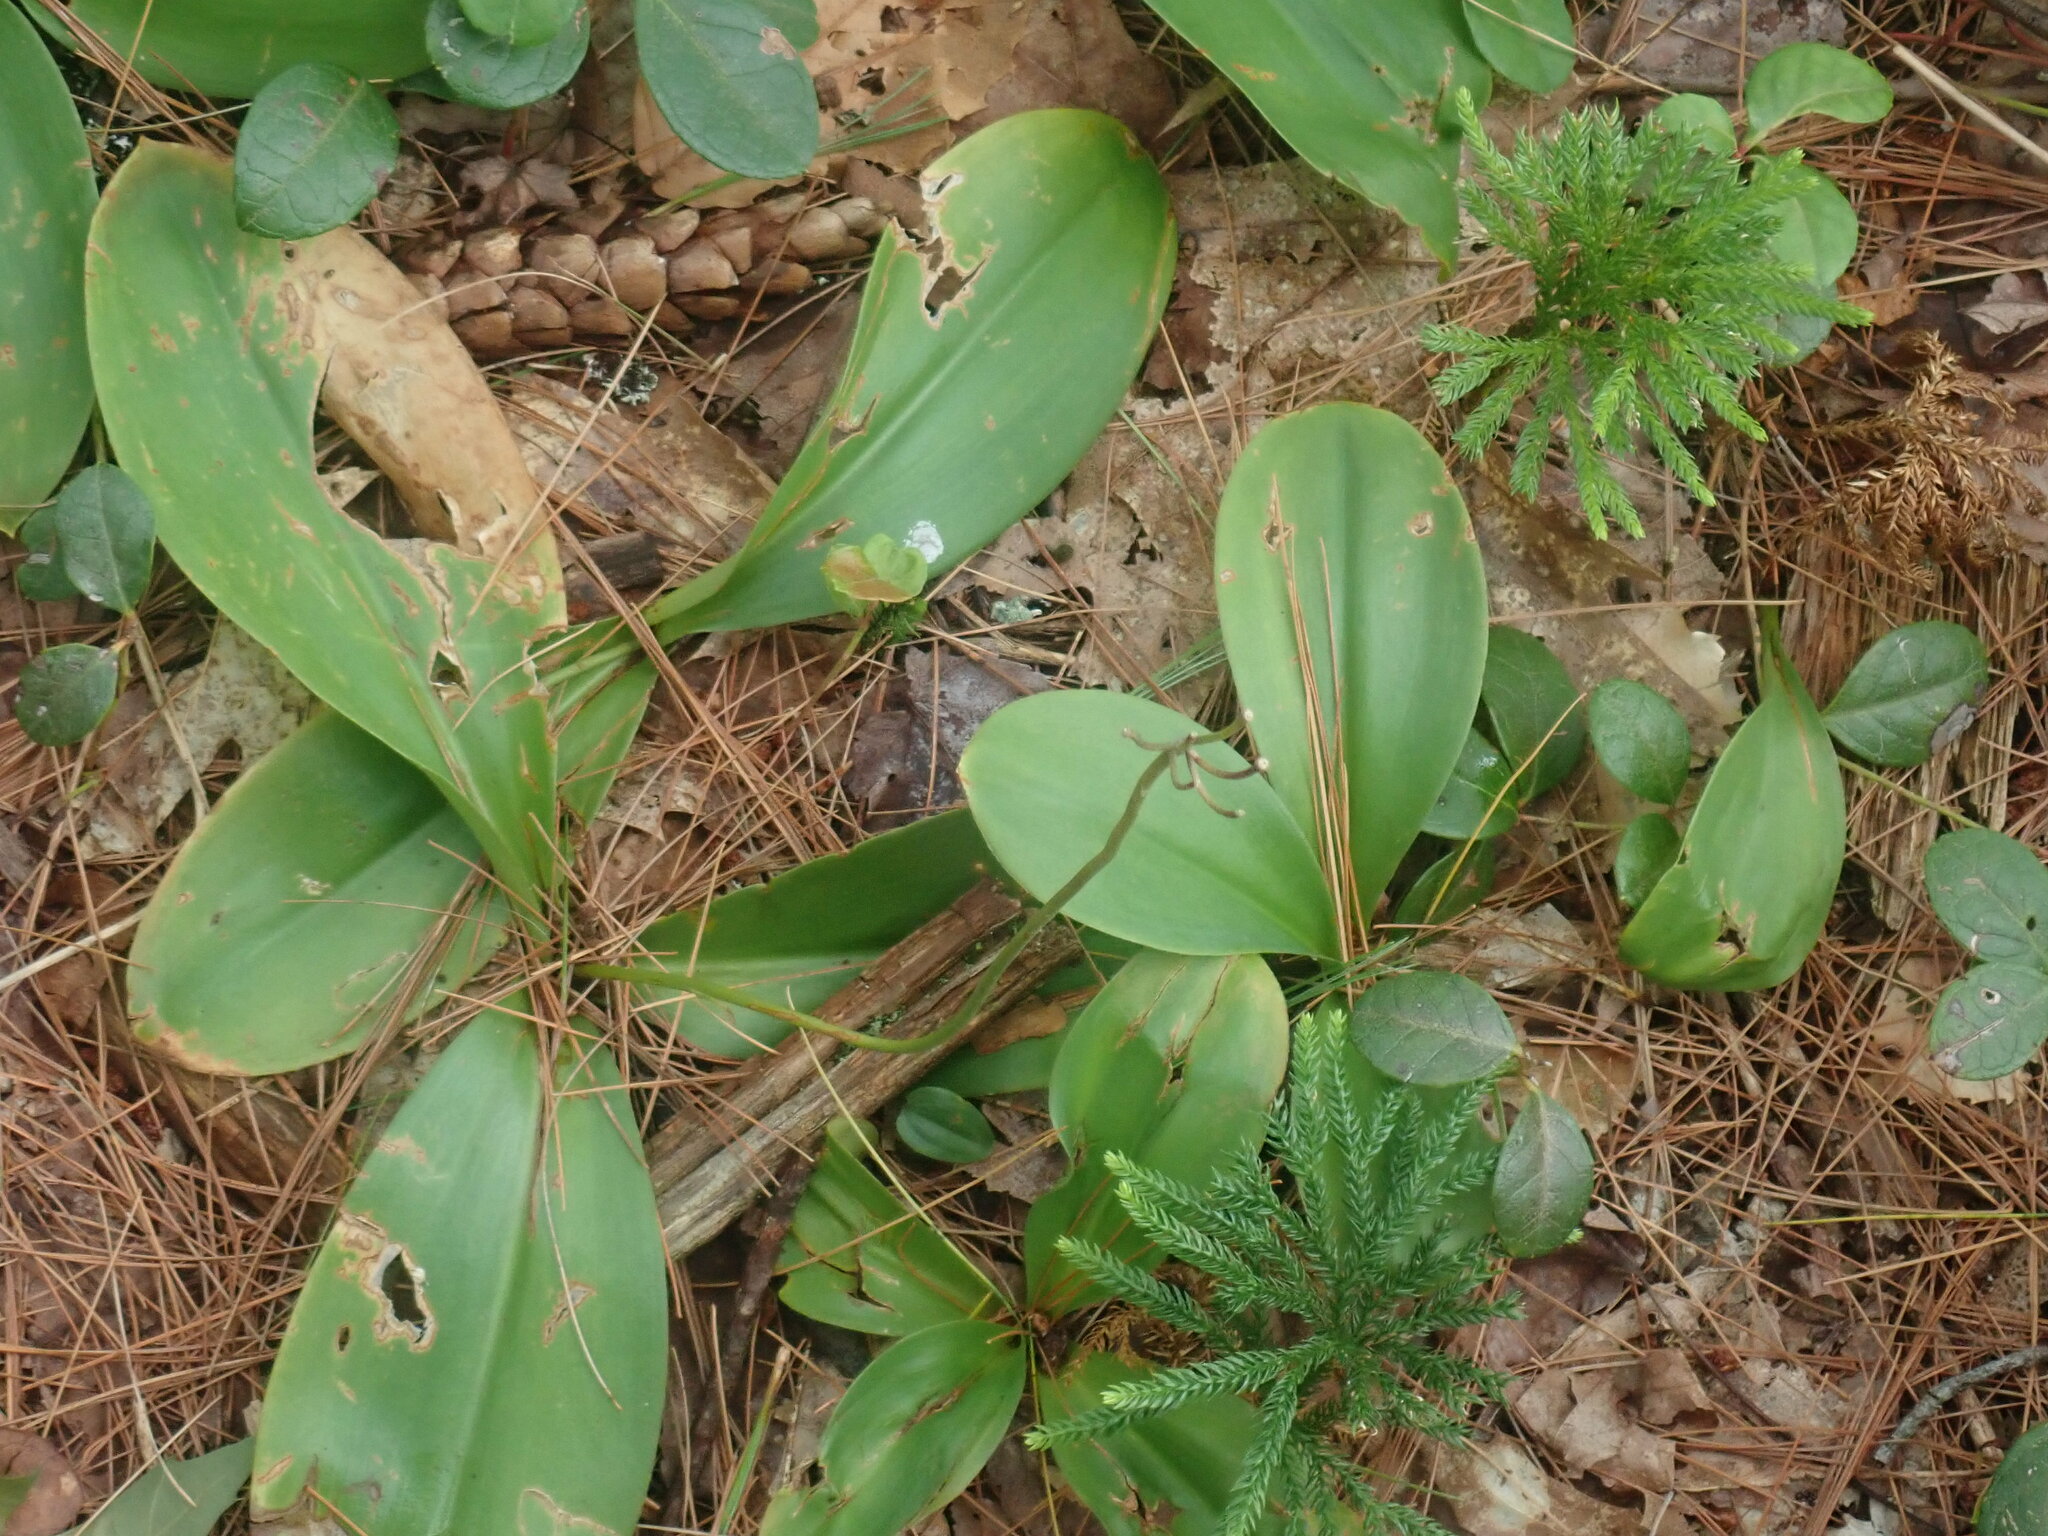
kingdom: Plantae
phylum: Tracheophyta
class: Liliopsida
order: Liliales
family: Liliaceae
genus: Clintonia
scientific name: Clintonia borealis
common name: Yellow clintonia
